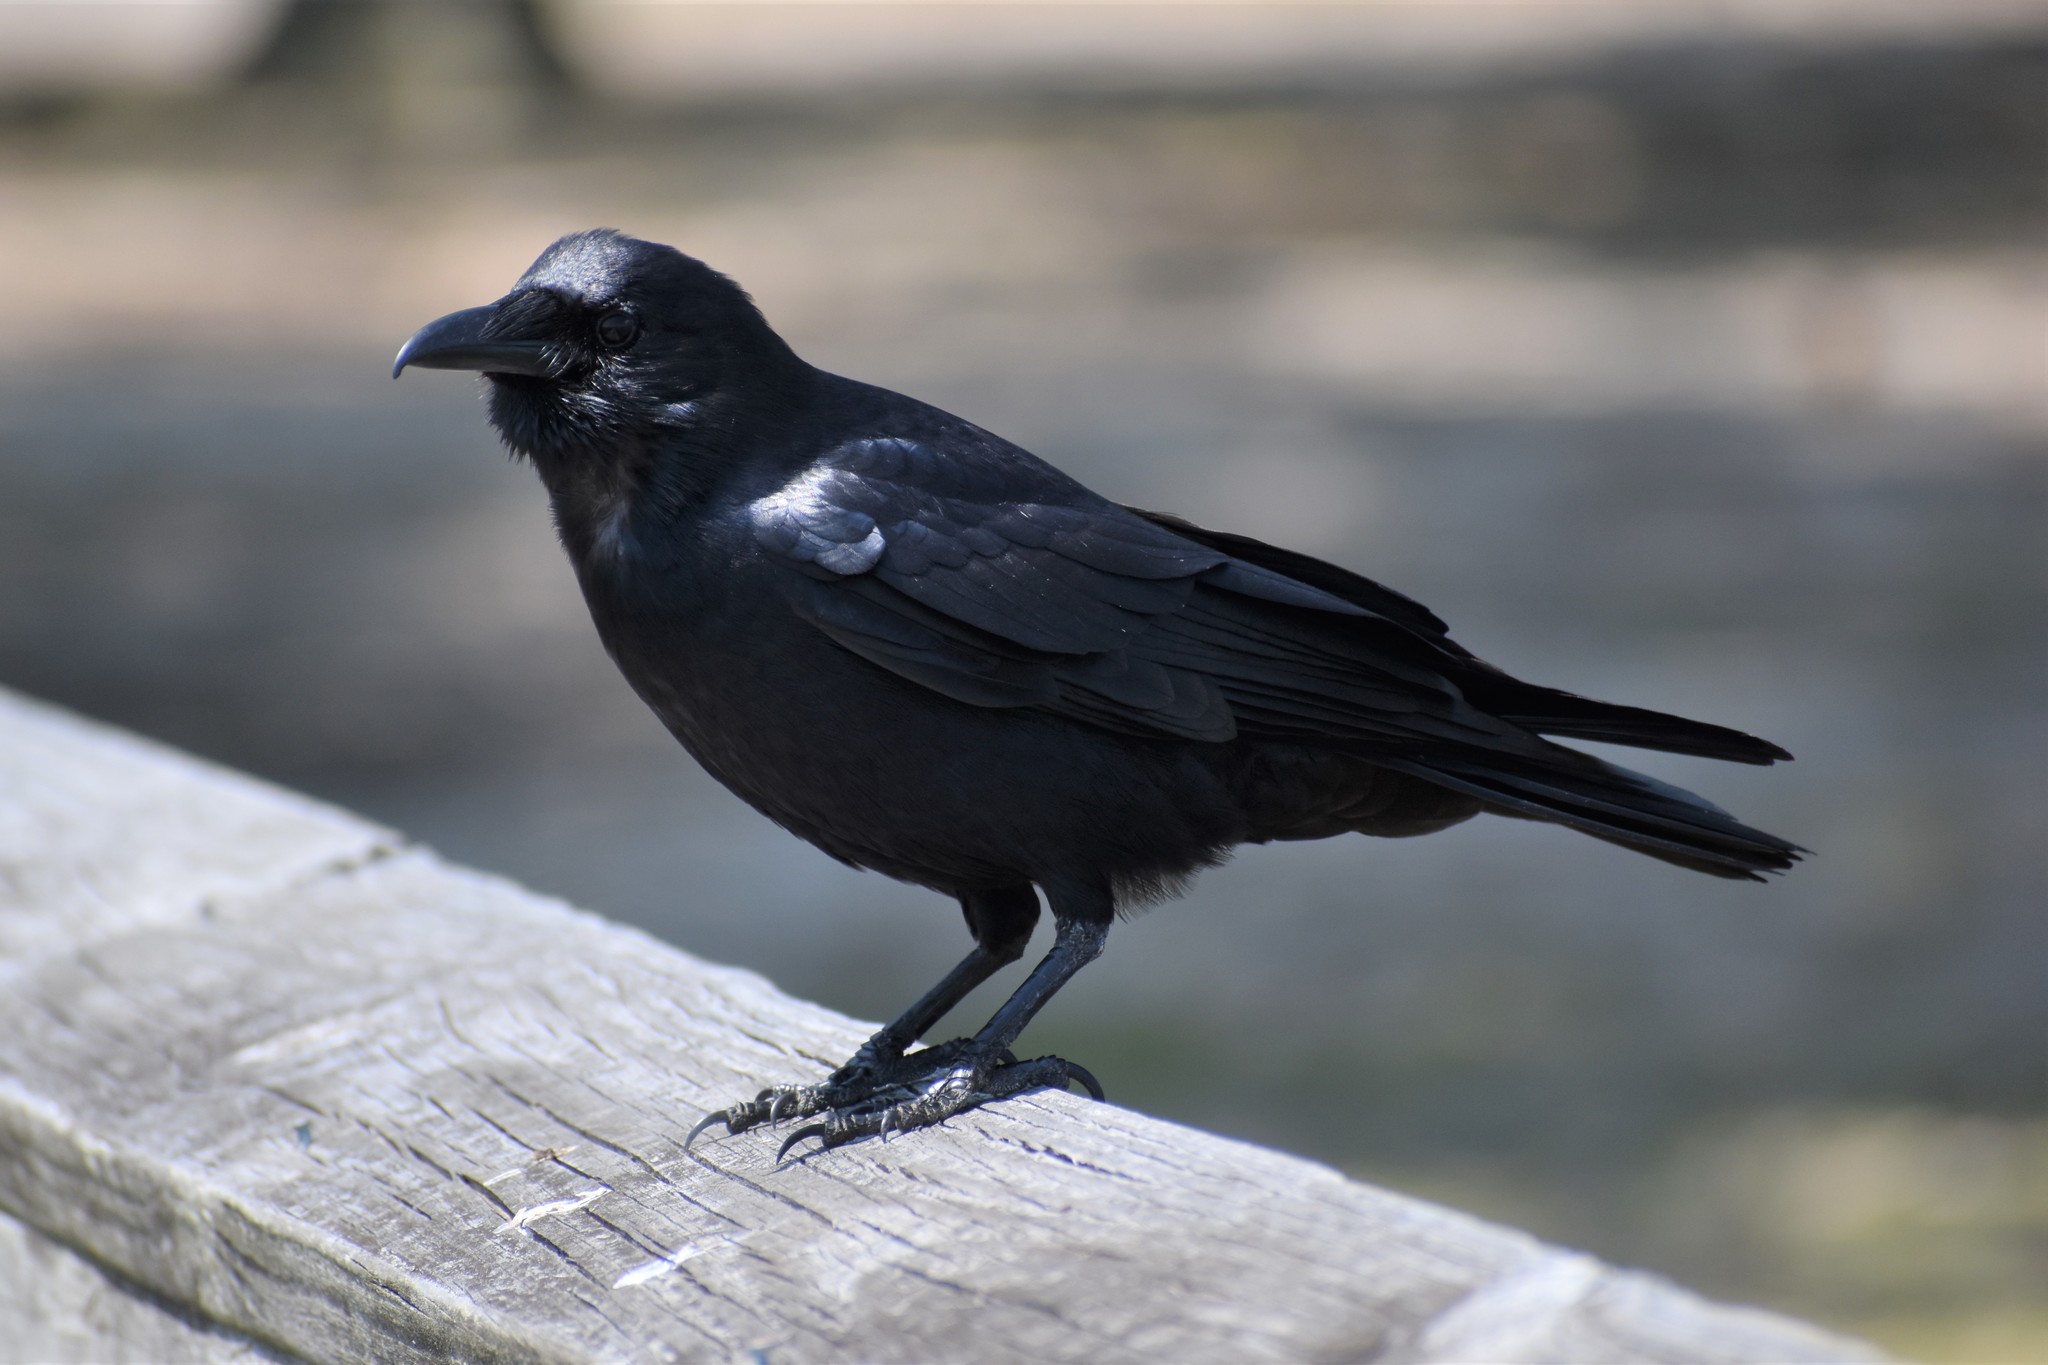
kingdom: Animalia
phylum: Chordata
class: Aves
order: Passeriformes
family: Corvidae
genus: Corvus
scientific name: Corvus ossifragus
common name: Fish crow
